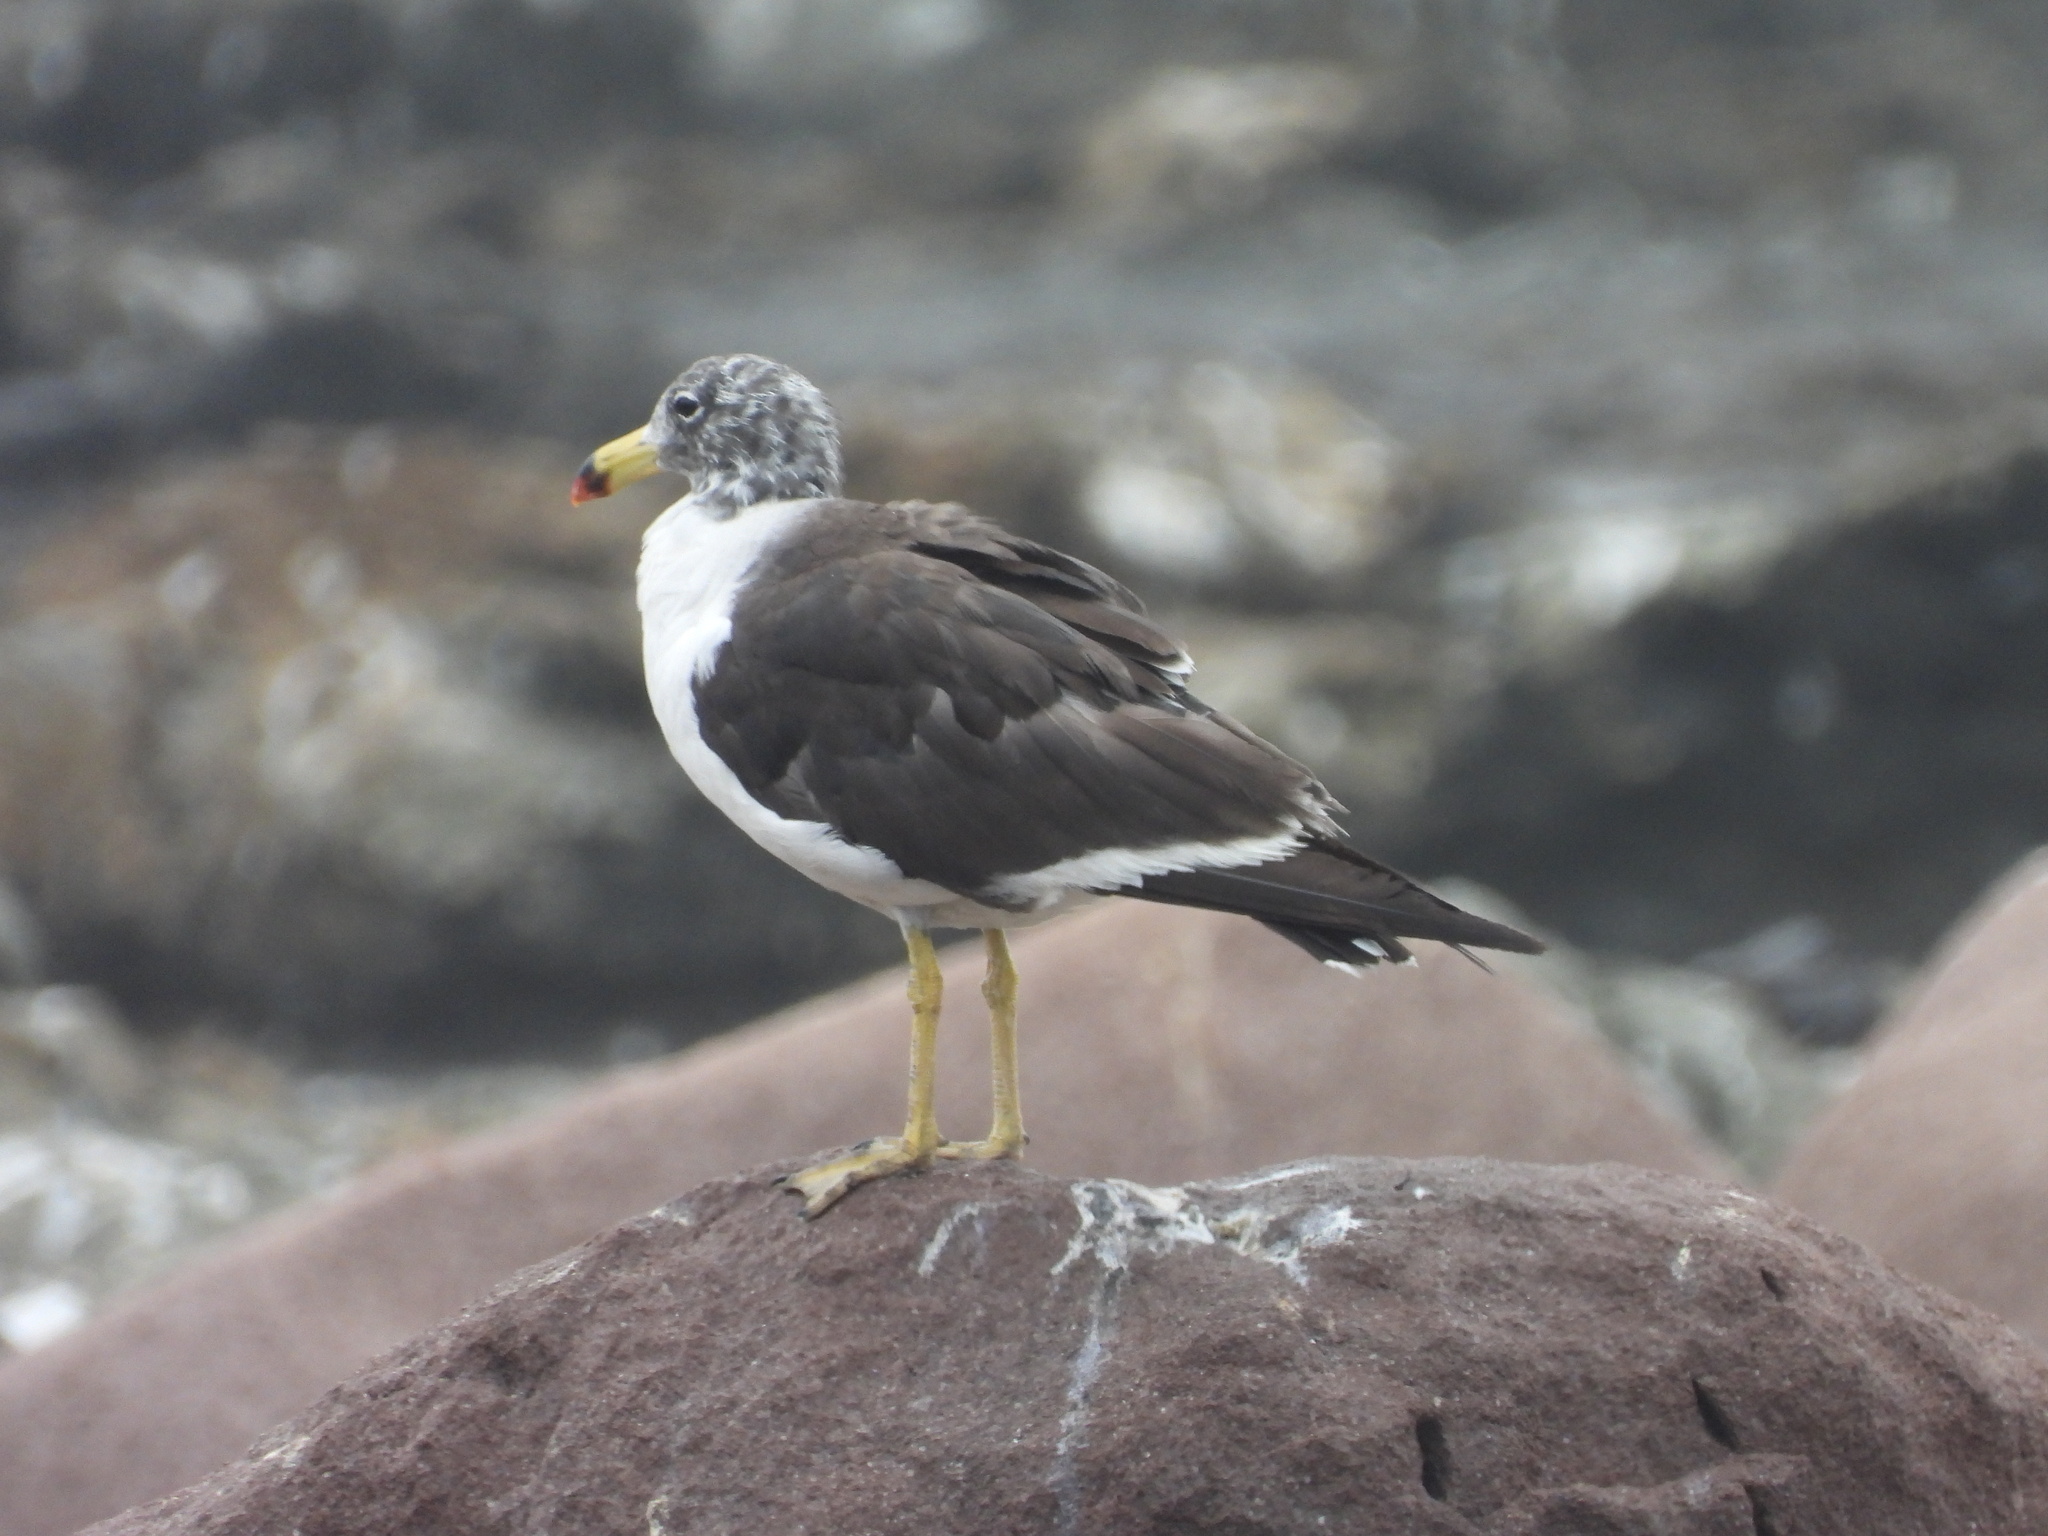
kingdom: Animalia
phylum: Chordata
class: Aves
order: Charadriiformes
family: Laridae
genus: Larus
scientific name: Larus belcheri
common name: Belcher's gull
